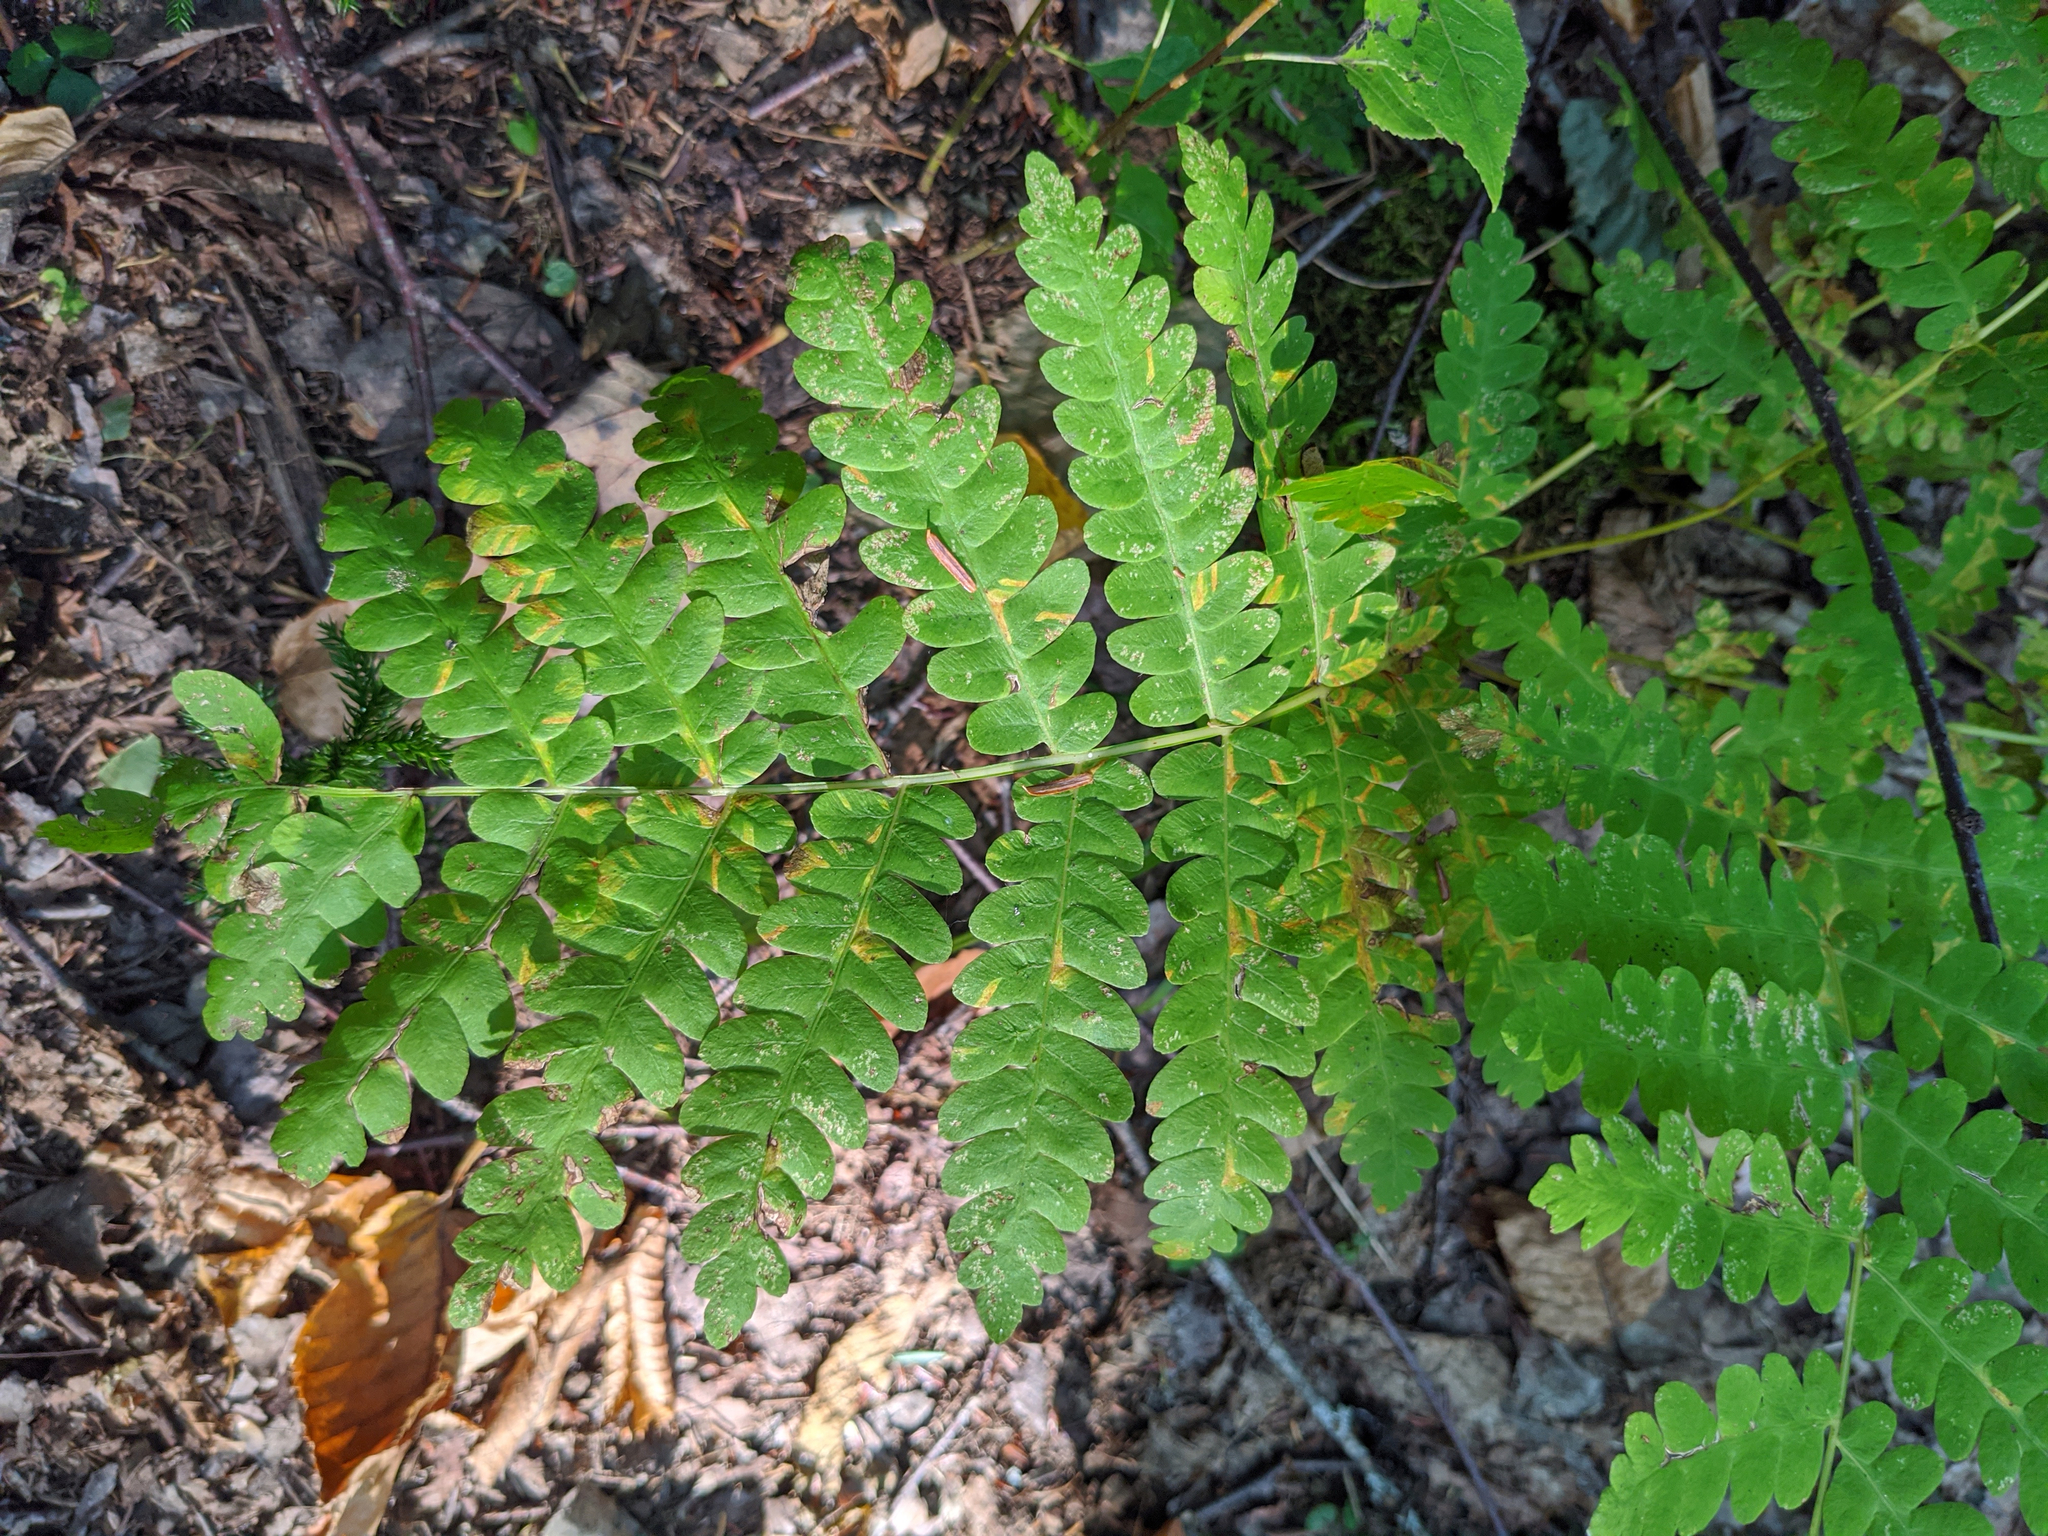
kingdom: Plantae
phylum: Tracheophyta
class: Polypodiopsida
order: Osmundales
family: Osmundaceae
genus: Claytosmunda
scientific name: Claytosmunda claytoniana
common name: Clayton's fern
